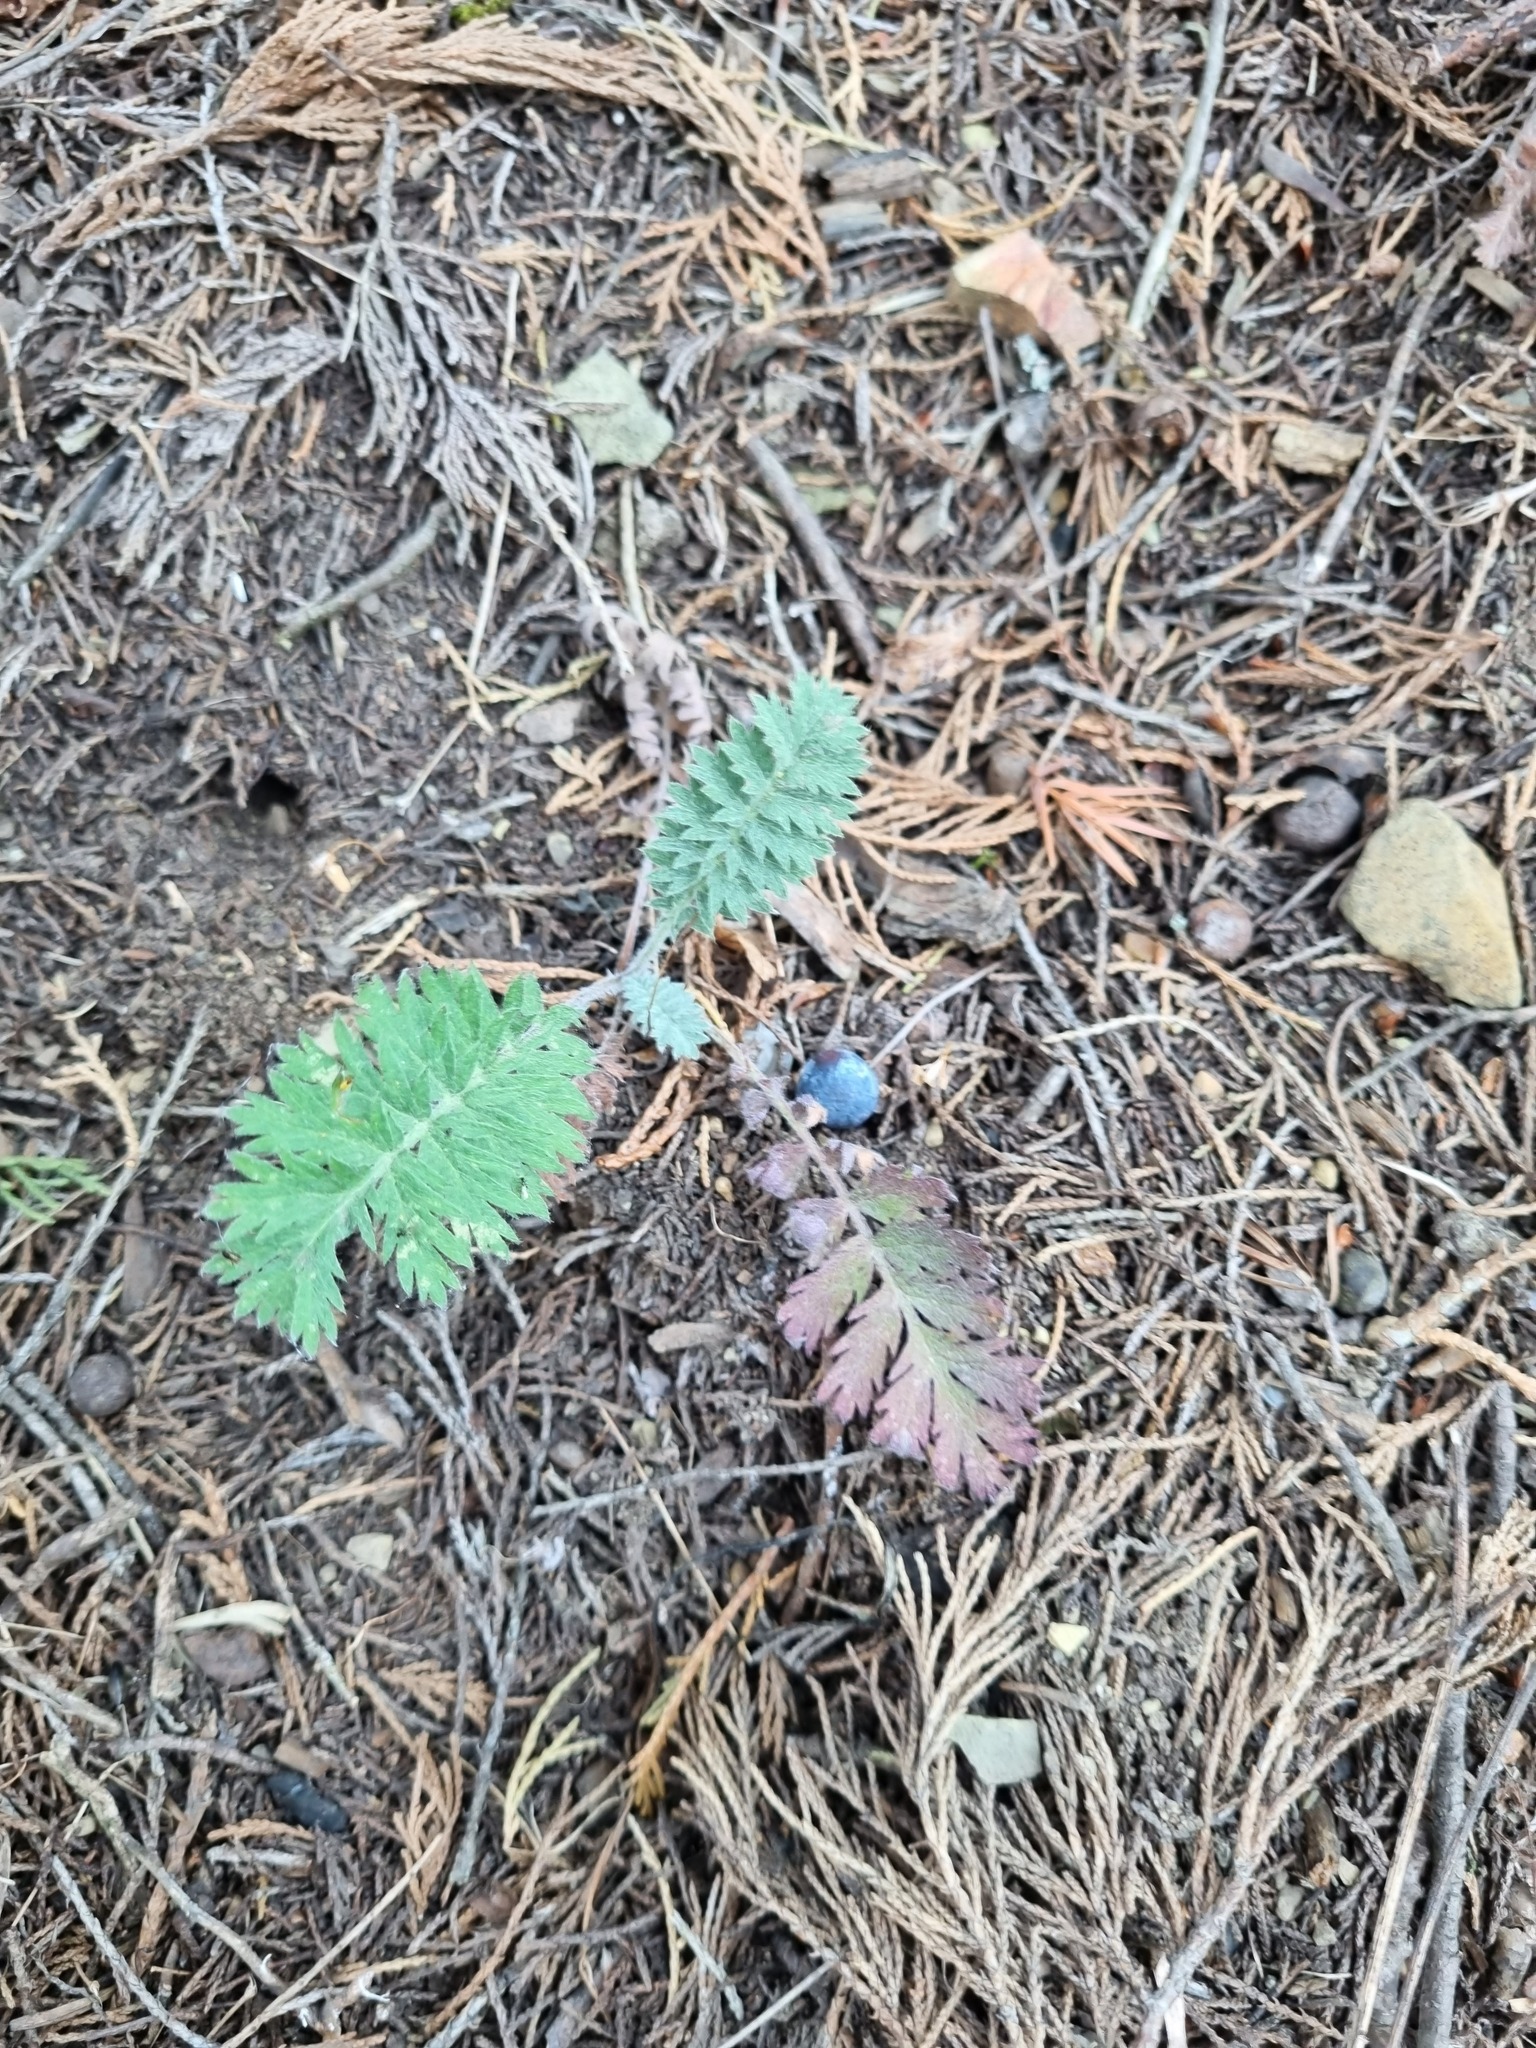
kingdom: Plantae
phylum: Tracheophyta
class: Magnoliopsida
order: Asterales
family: Asteraceae
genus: Tanacetum
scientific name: Tanacetum poteriifolium
